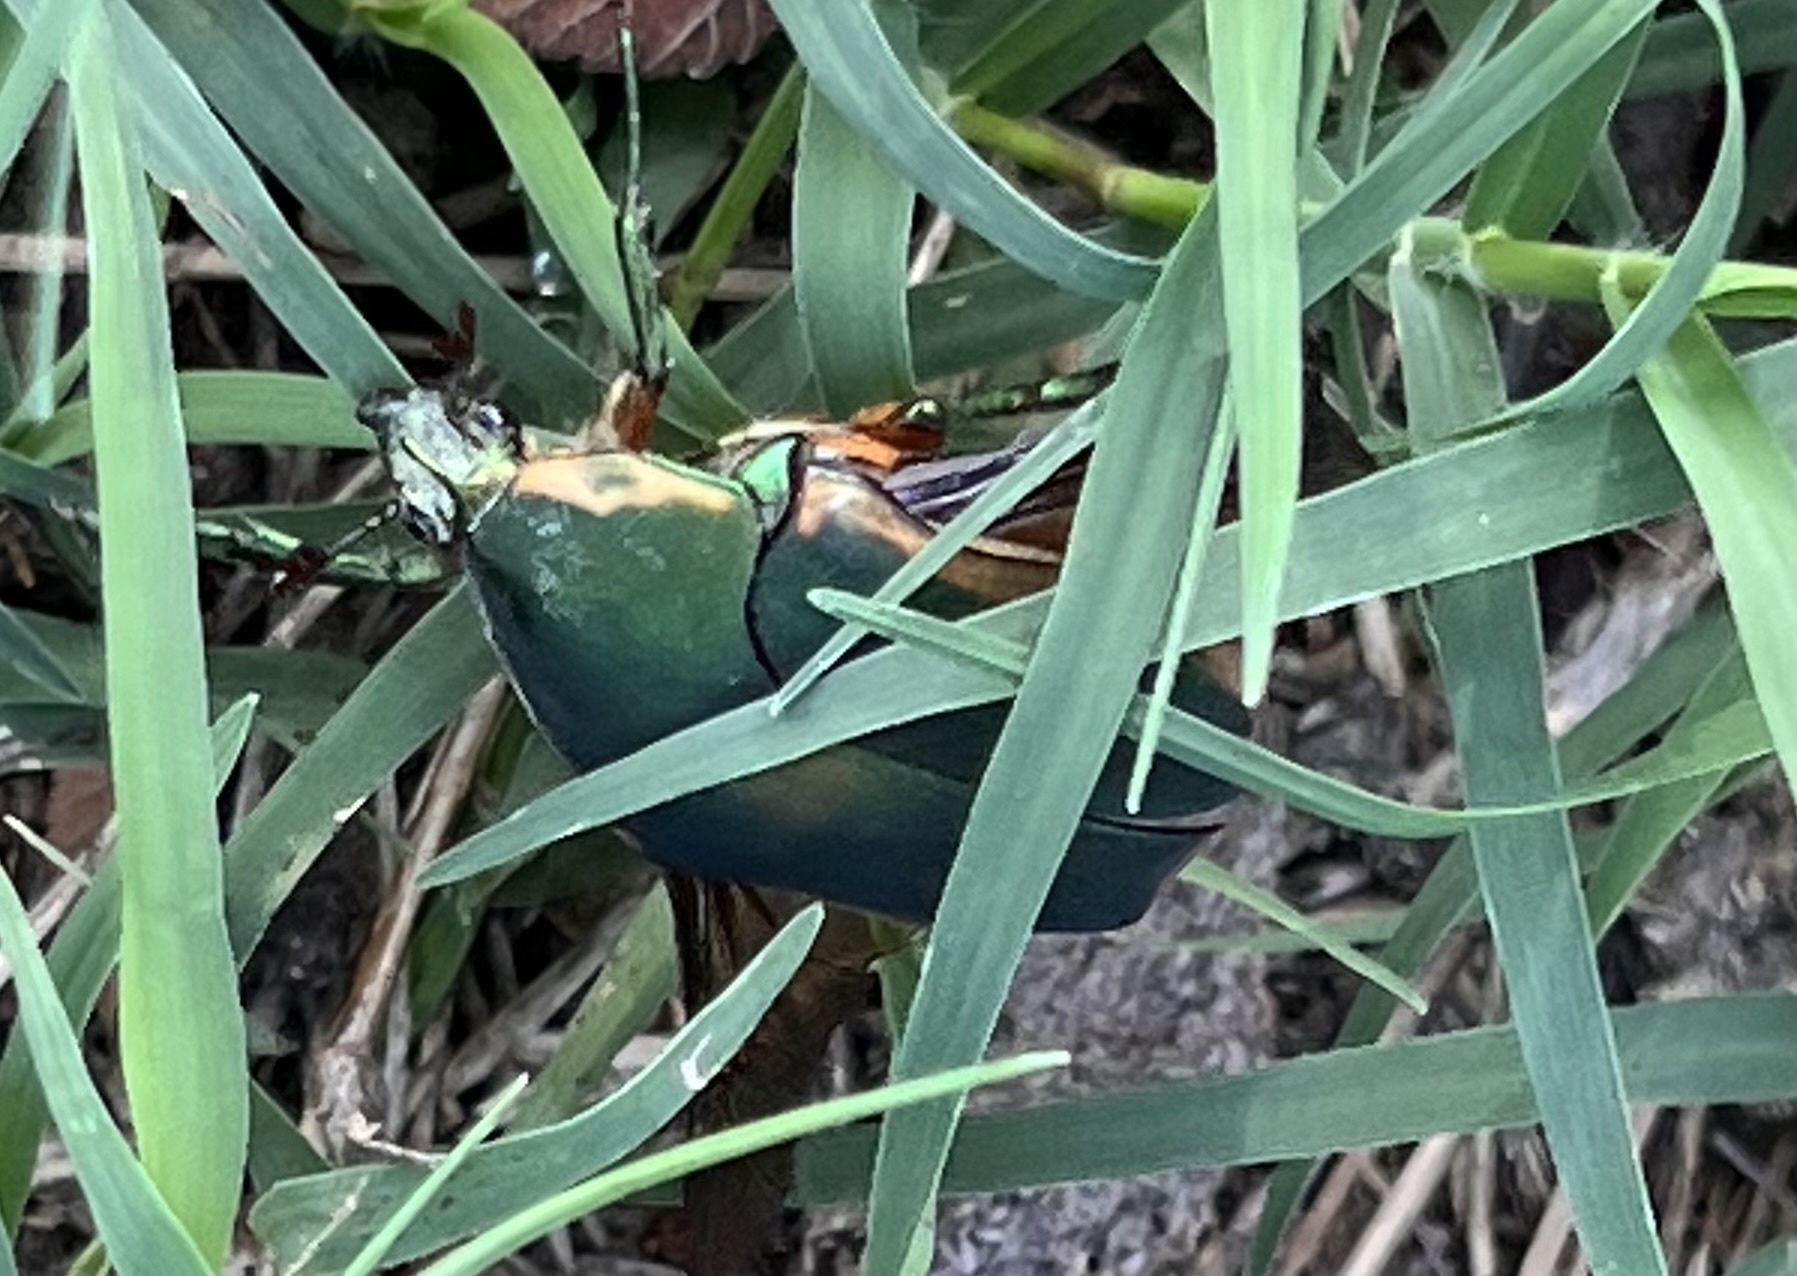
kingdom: Animalia
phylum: Arthropoda
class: Insecta
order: Coleoptera
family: Scarabaeidae
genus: Cotinis
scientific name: Cotinis nitida
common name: Common green june beetle
